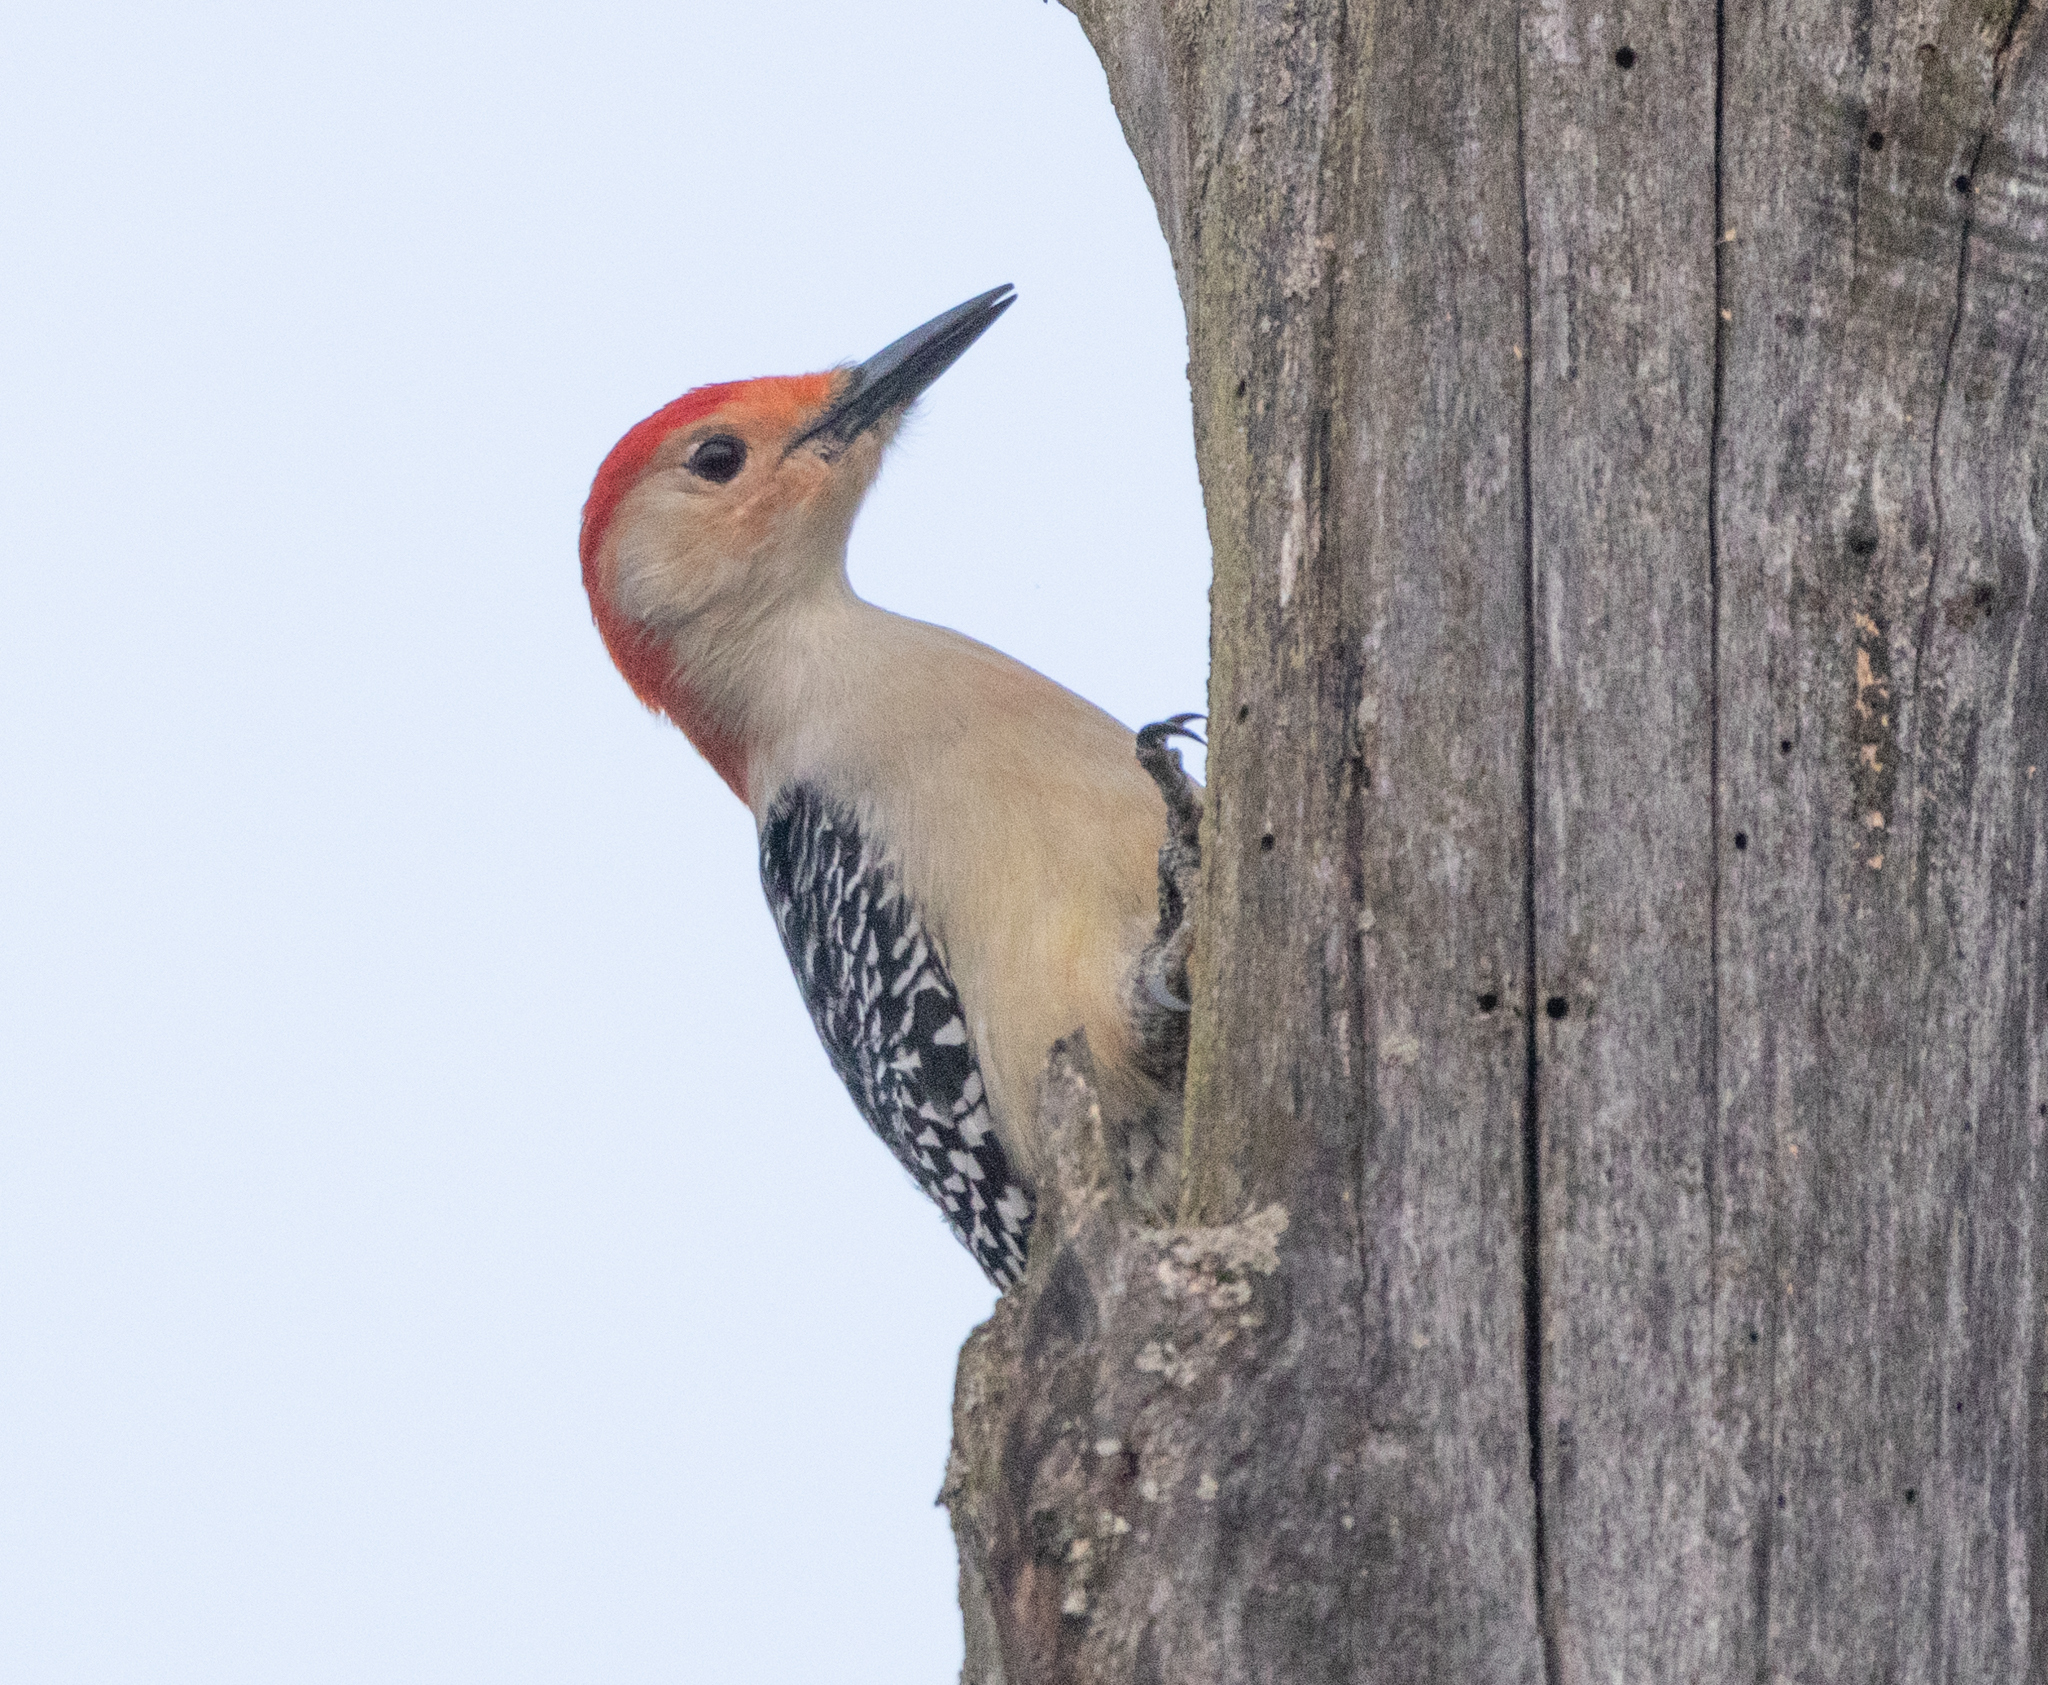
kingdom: Animalia
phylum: Chordata
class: Aves
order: Piciformes
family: Picidae
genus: Melanerpes
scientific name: Melanerpes carolinus
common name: Red-bellied woodpecker
